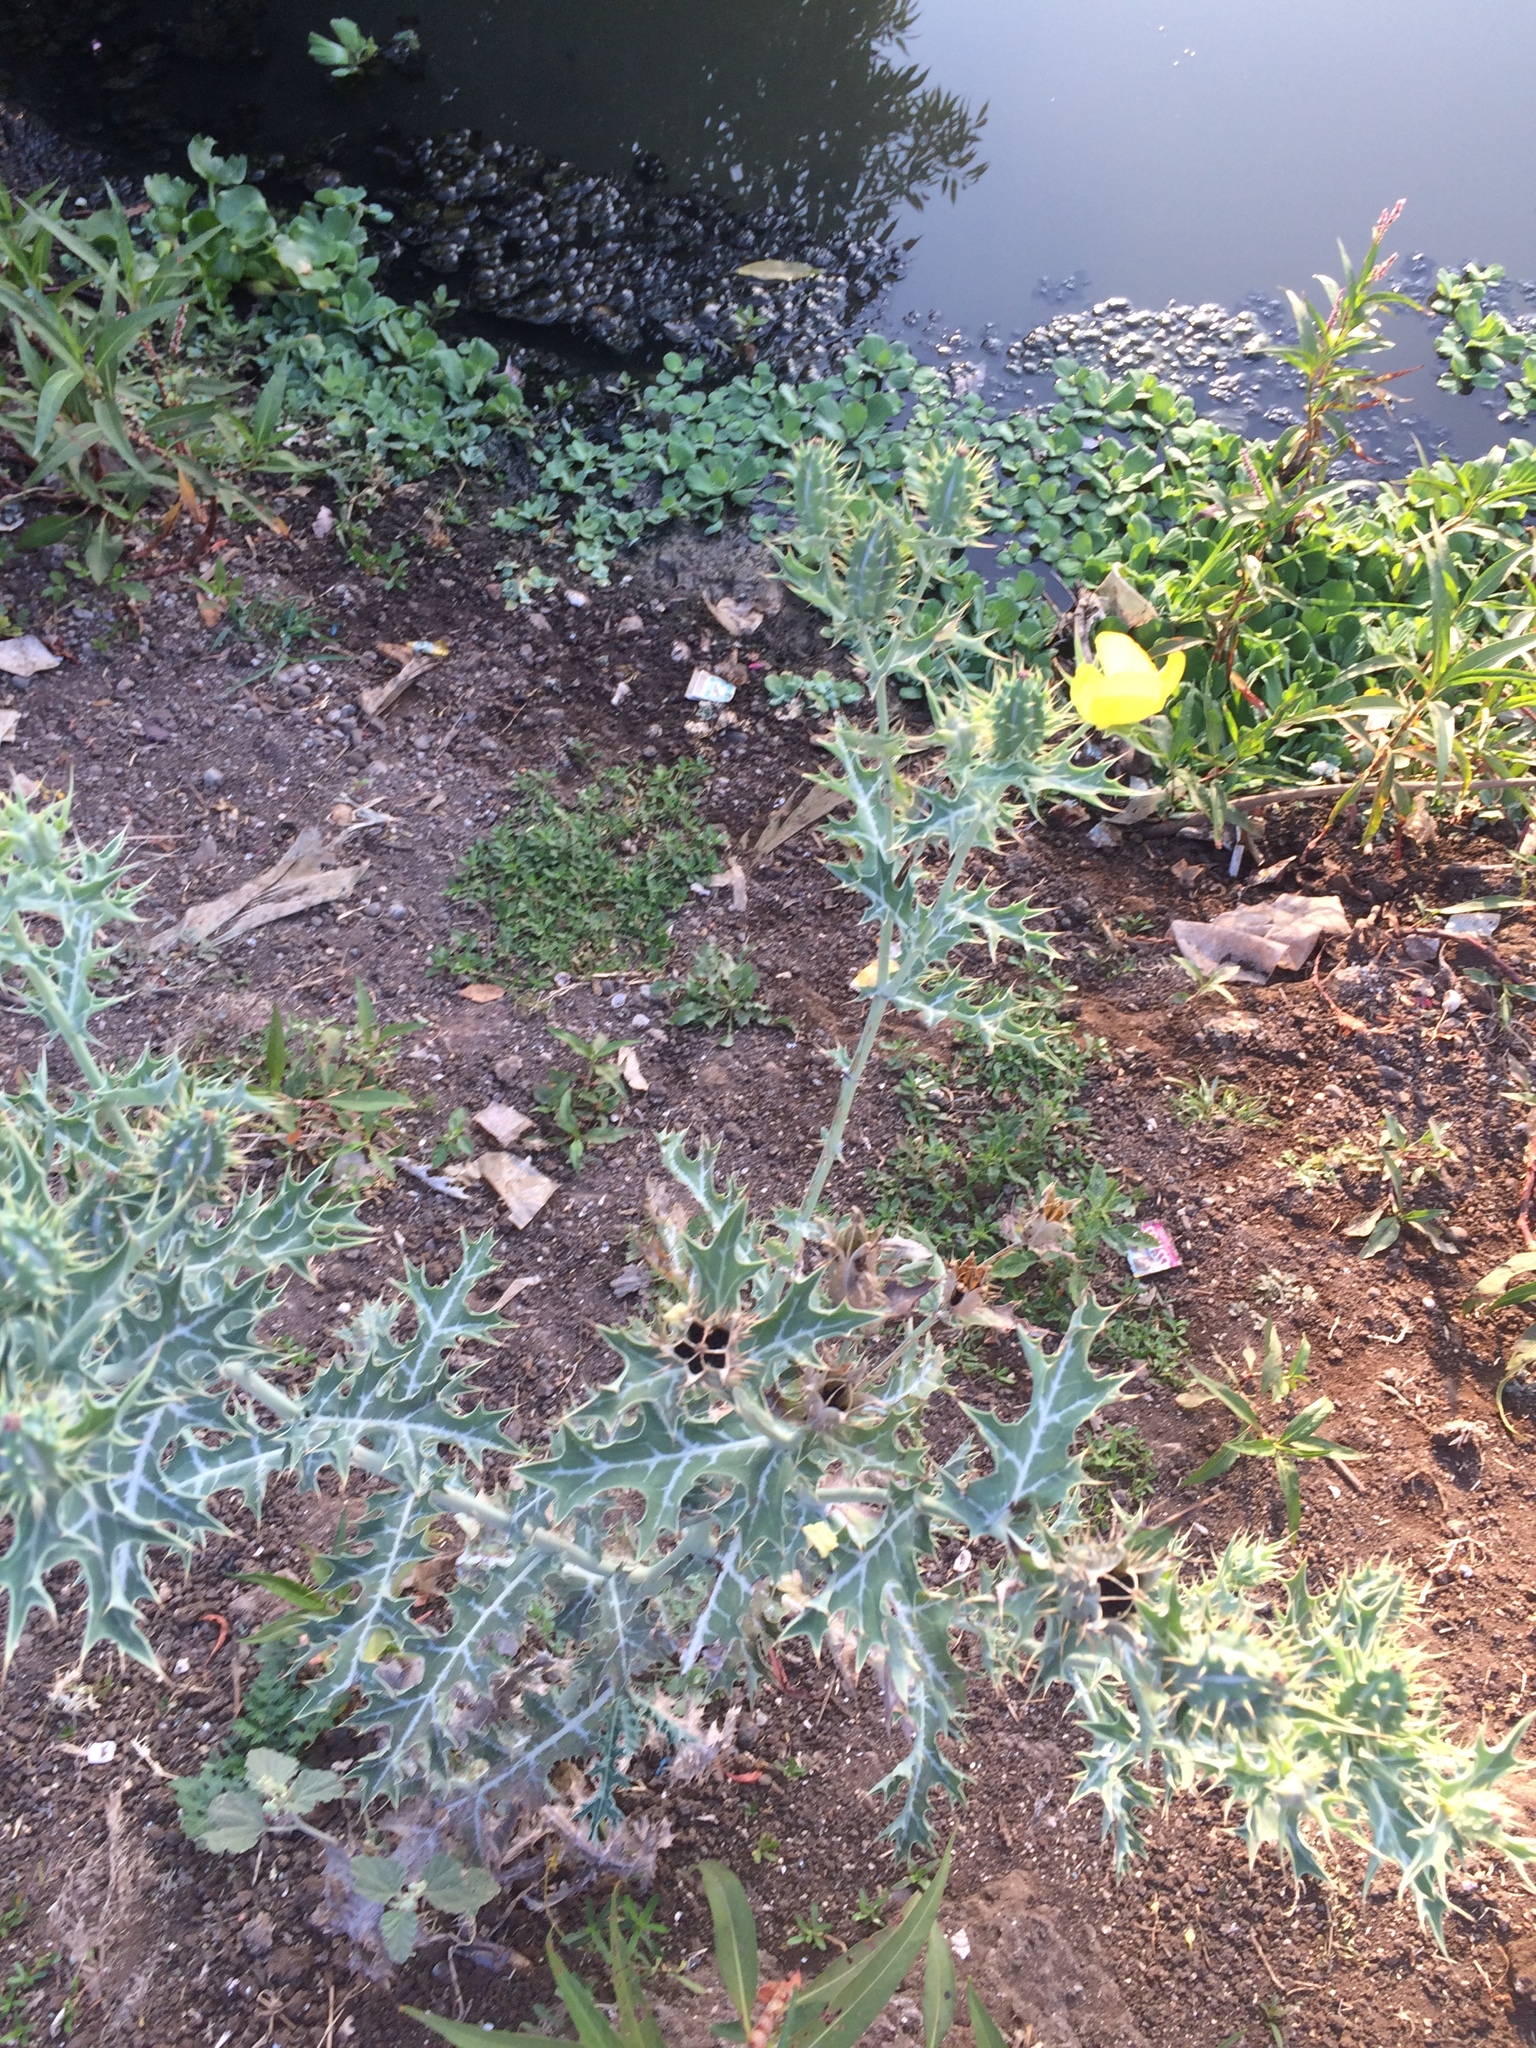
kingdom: Plantae
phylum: Tracheophyta
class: Magnoliopsida
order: Ranunculales
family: Papaveraceae
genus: Argemone
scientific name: Argemone mexicana
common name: Mexican poppy
